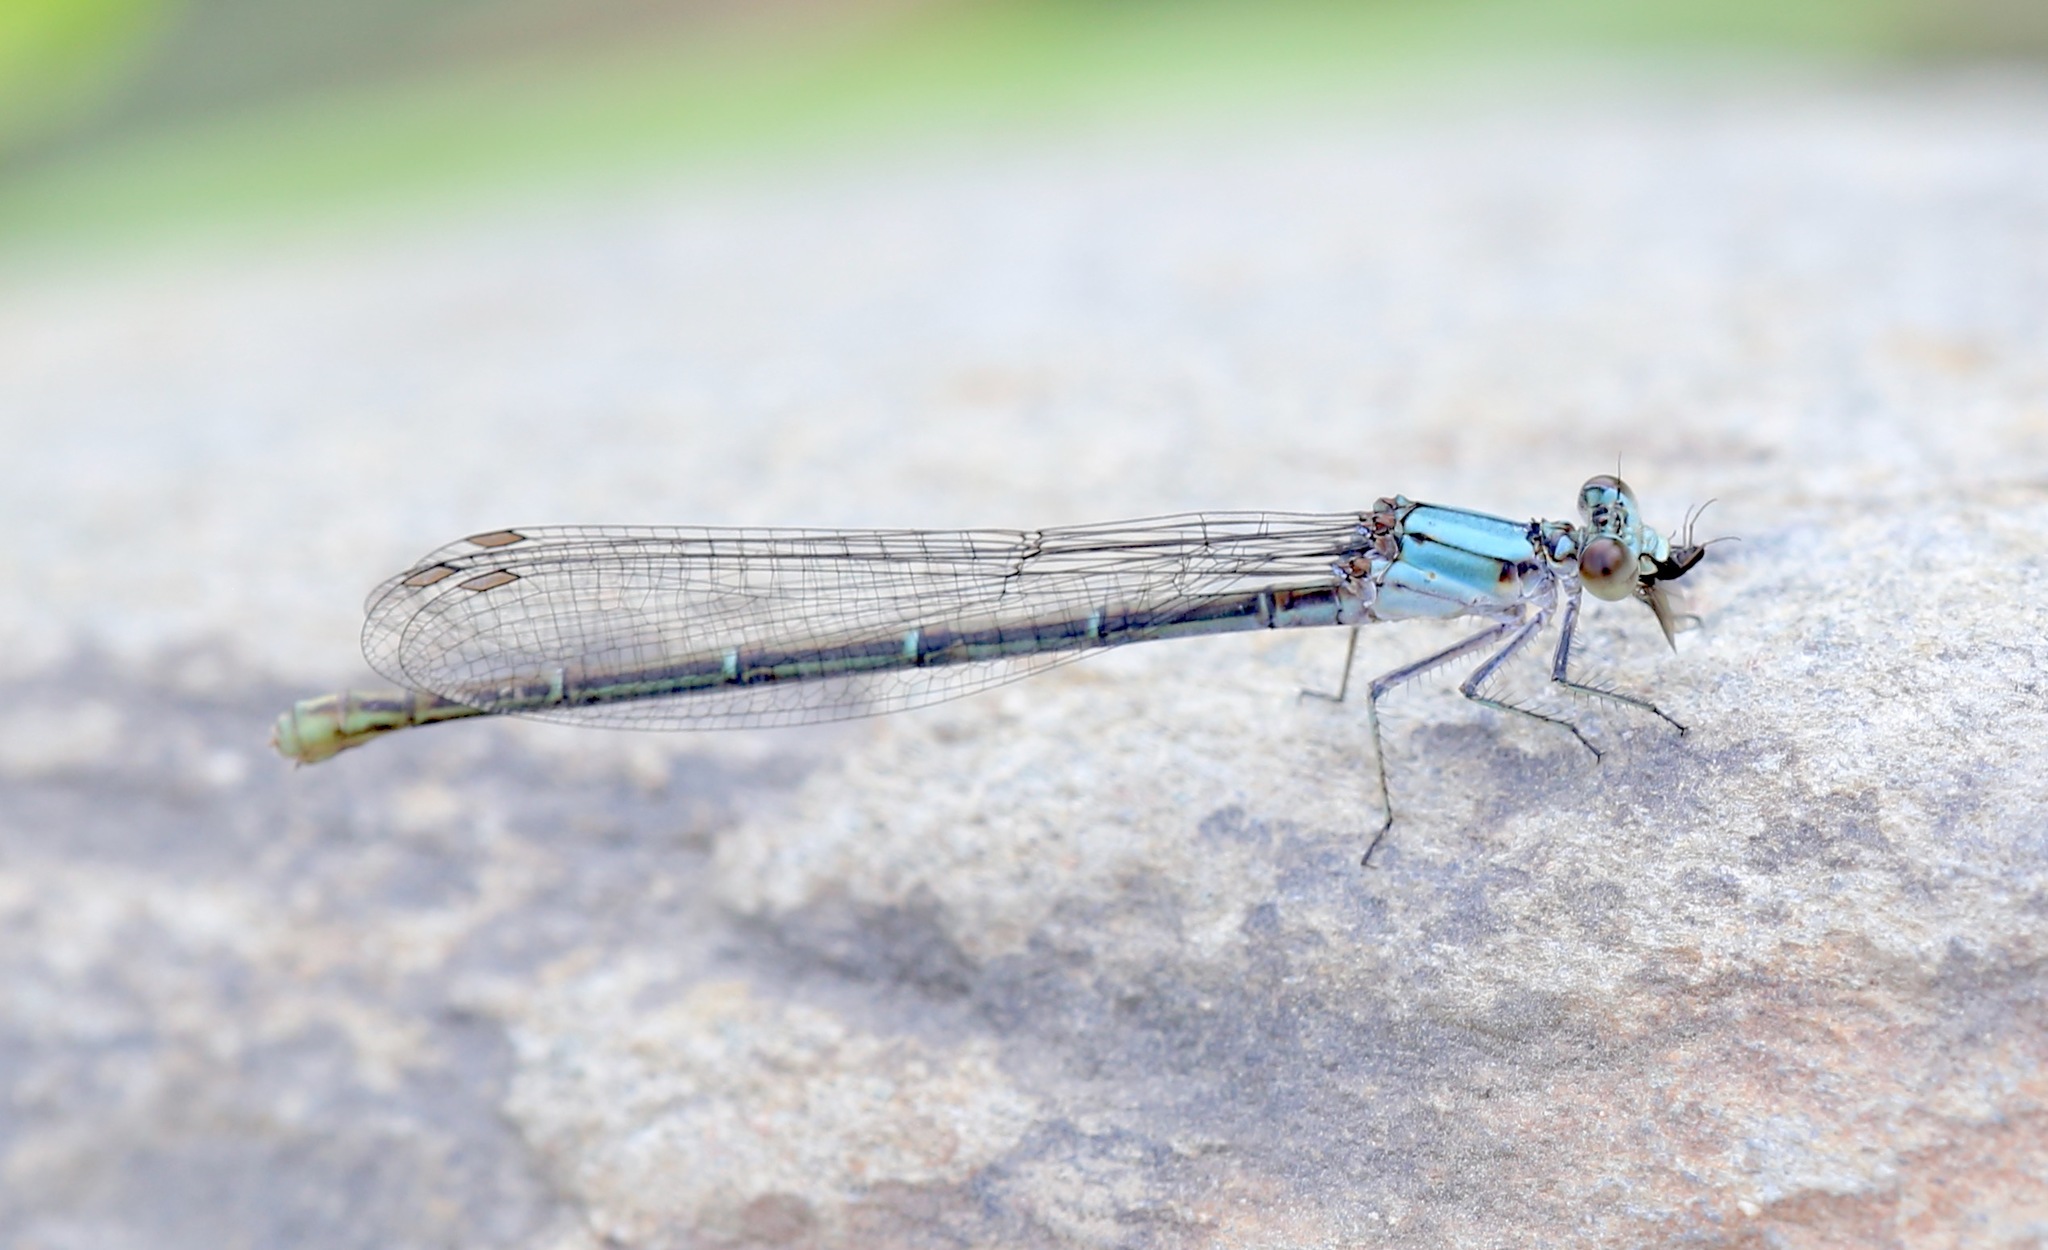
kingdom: Animalia
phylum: Arthropoda
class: Insecta
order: Odonata
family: Coenagrionidae
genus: Argia
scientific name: Argia moesta
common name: Powdered dancer
